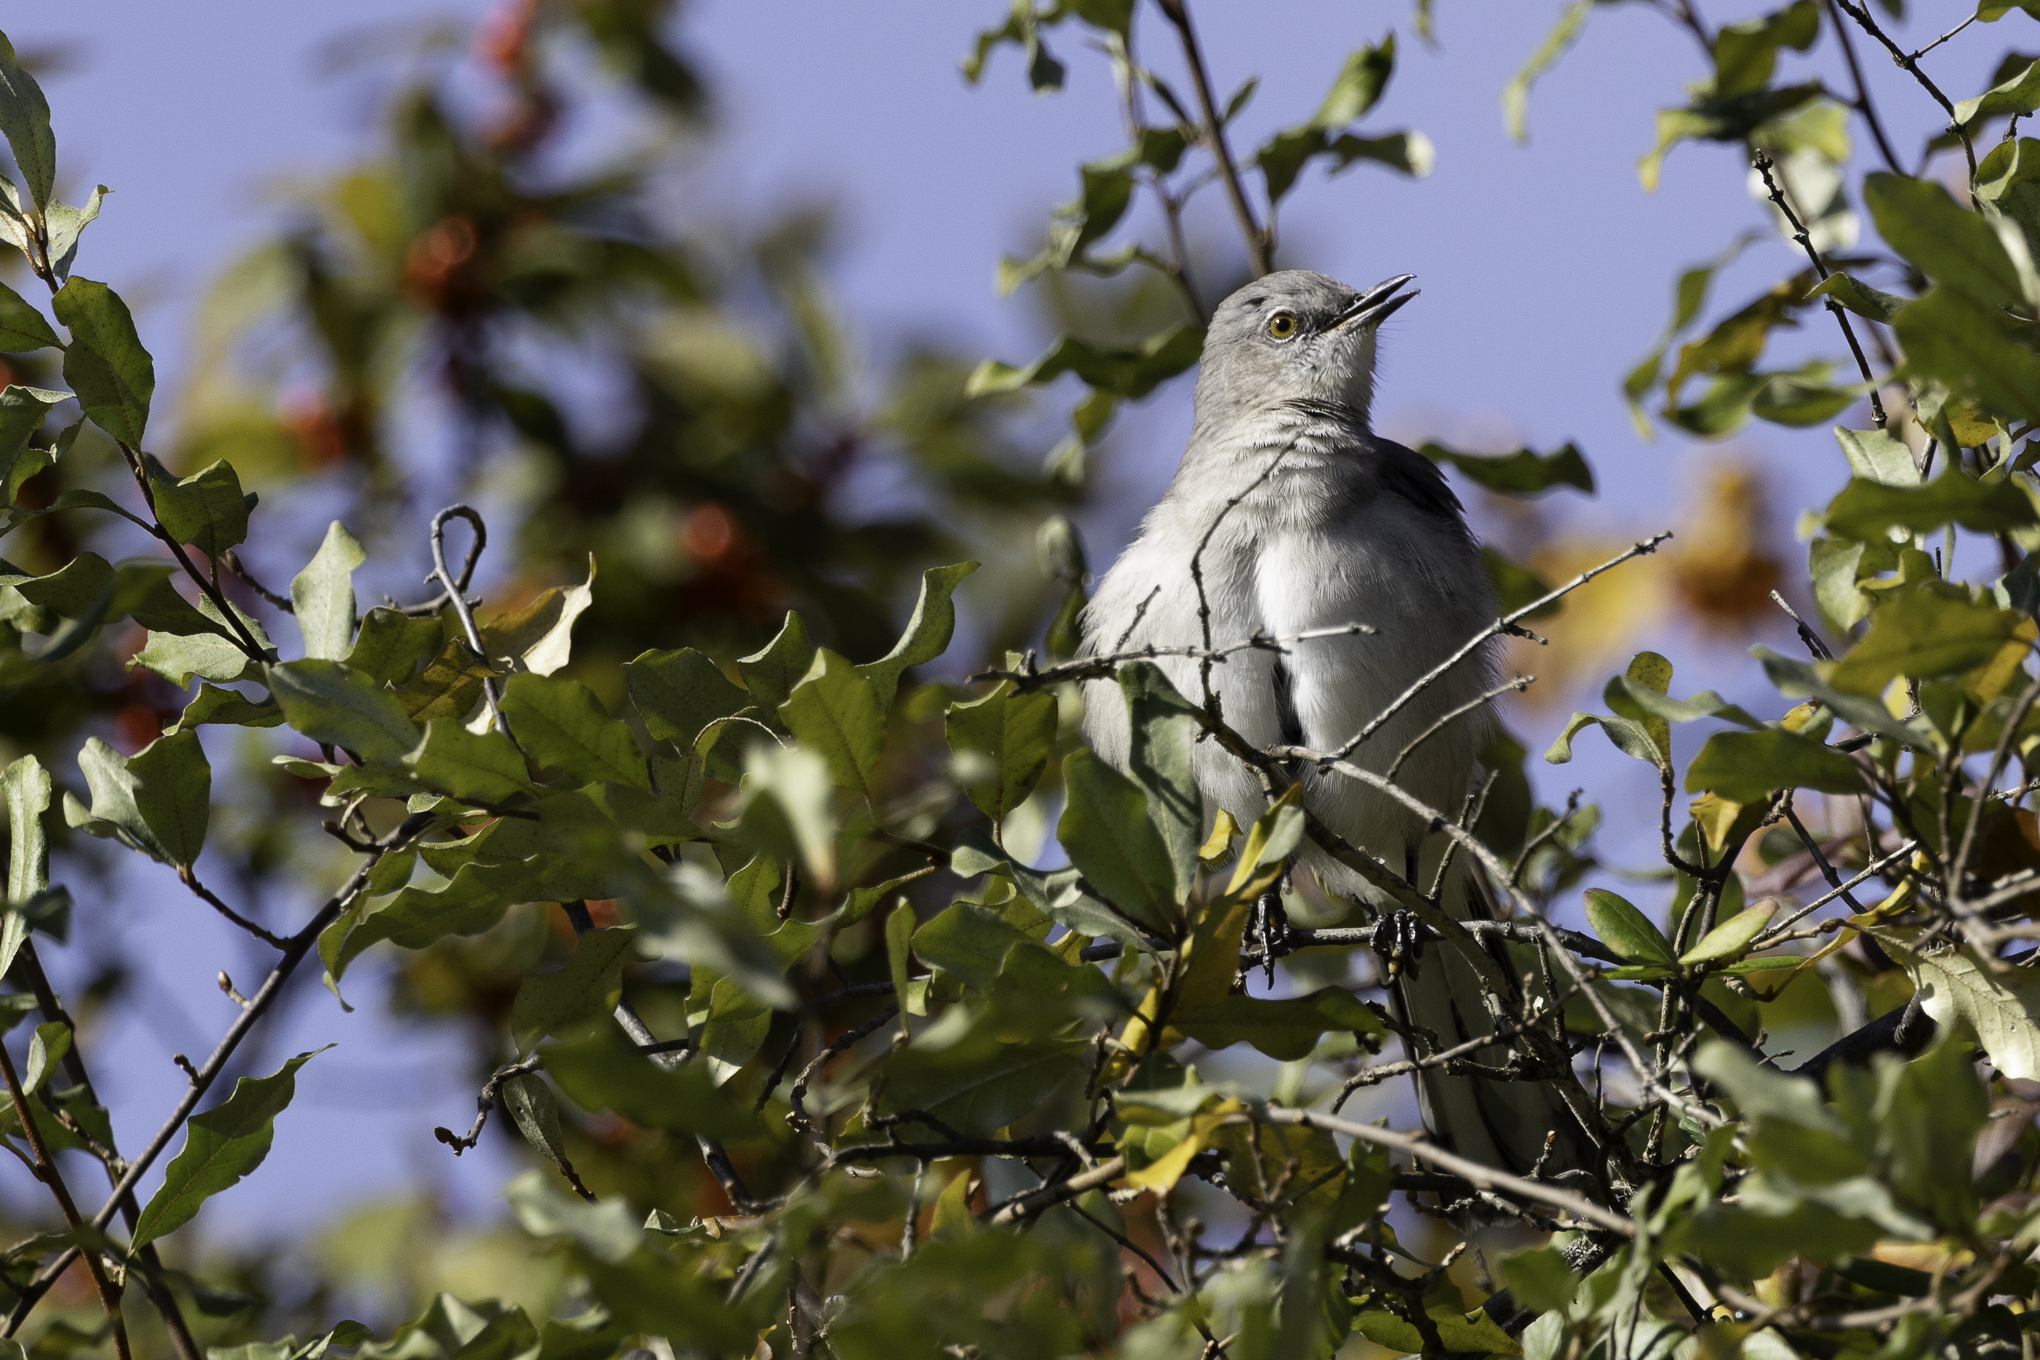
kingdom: Animalia
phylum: Chordata
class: Aves
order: Passeriformes
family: Mimidae
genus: Mimus
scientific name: Mimus polyglottos
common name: Northern mockingbird
